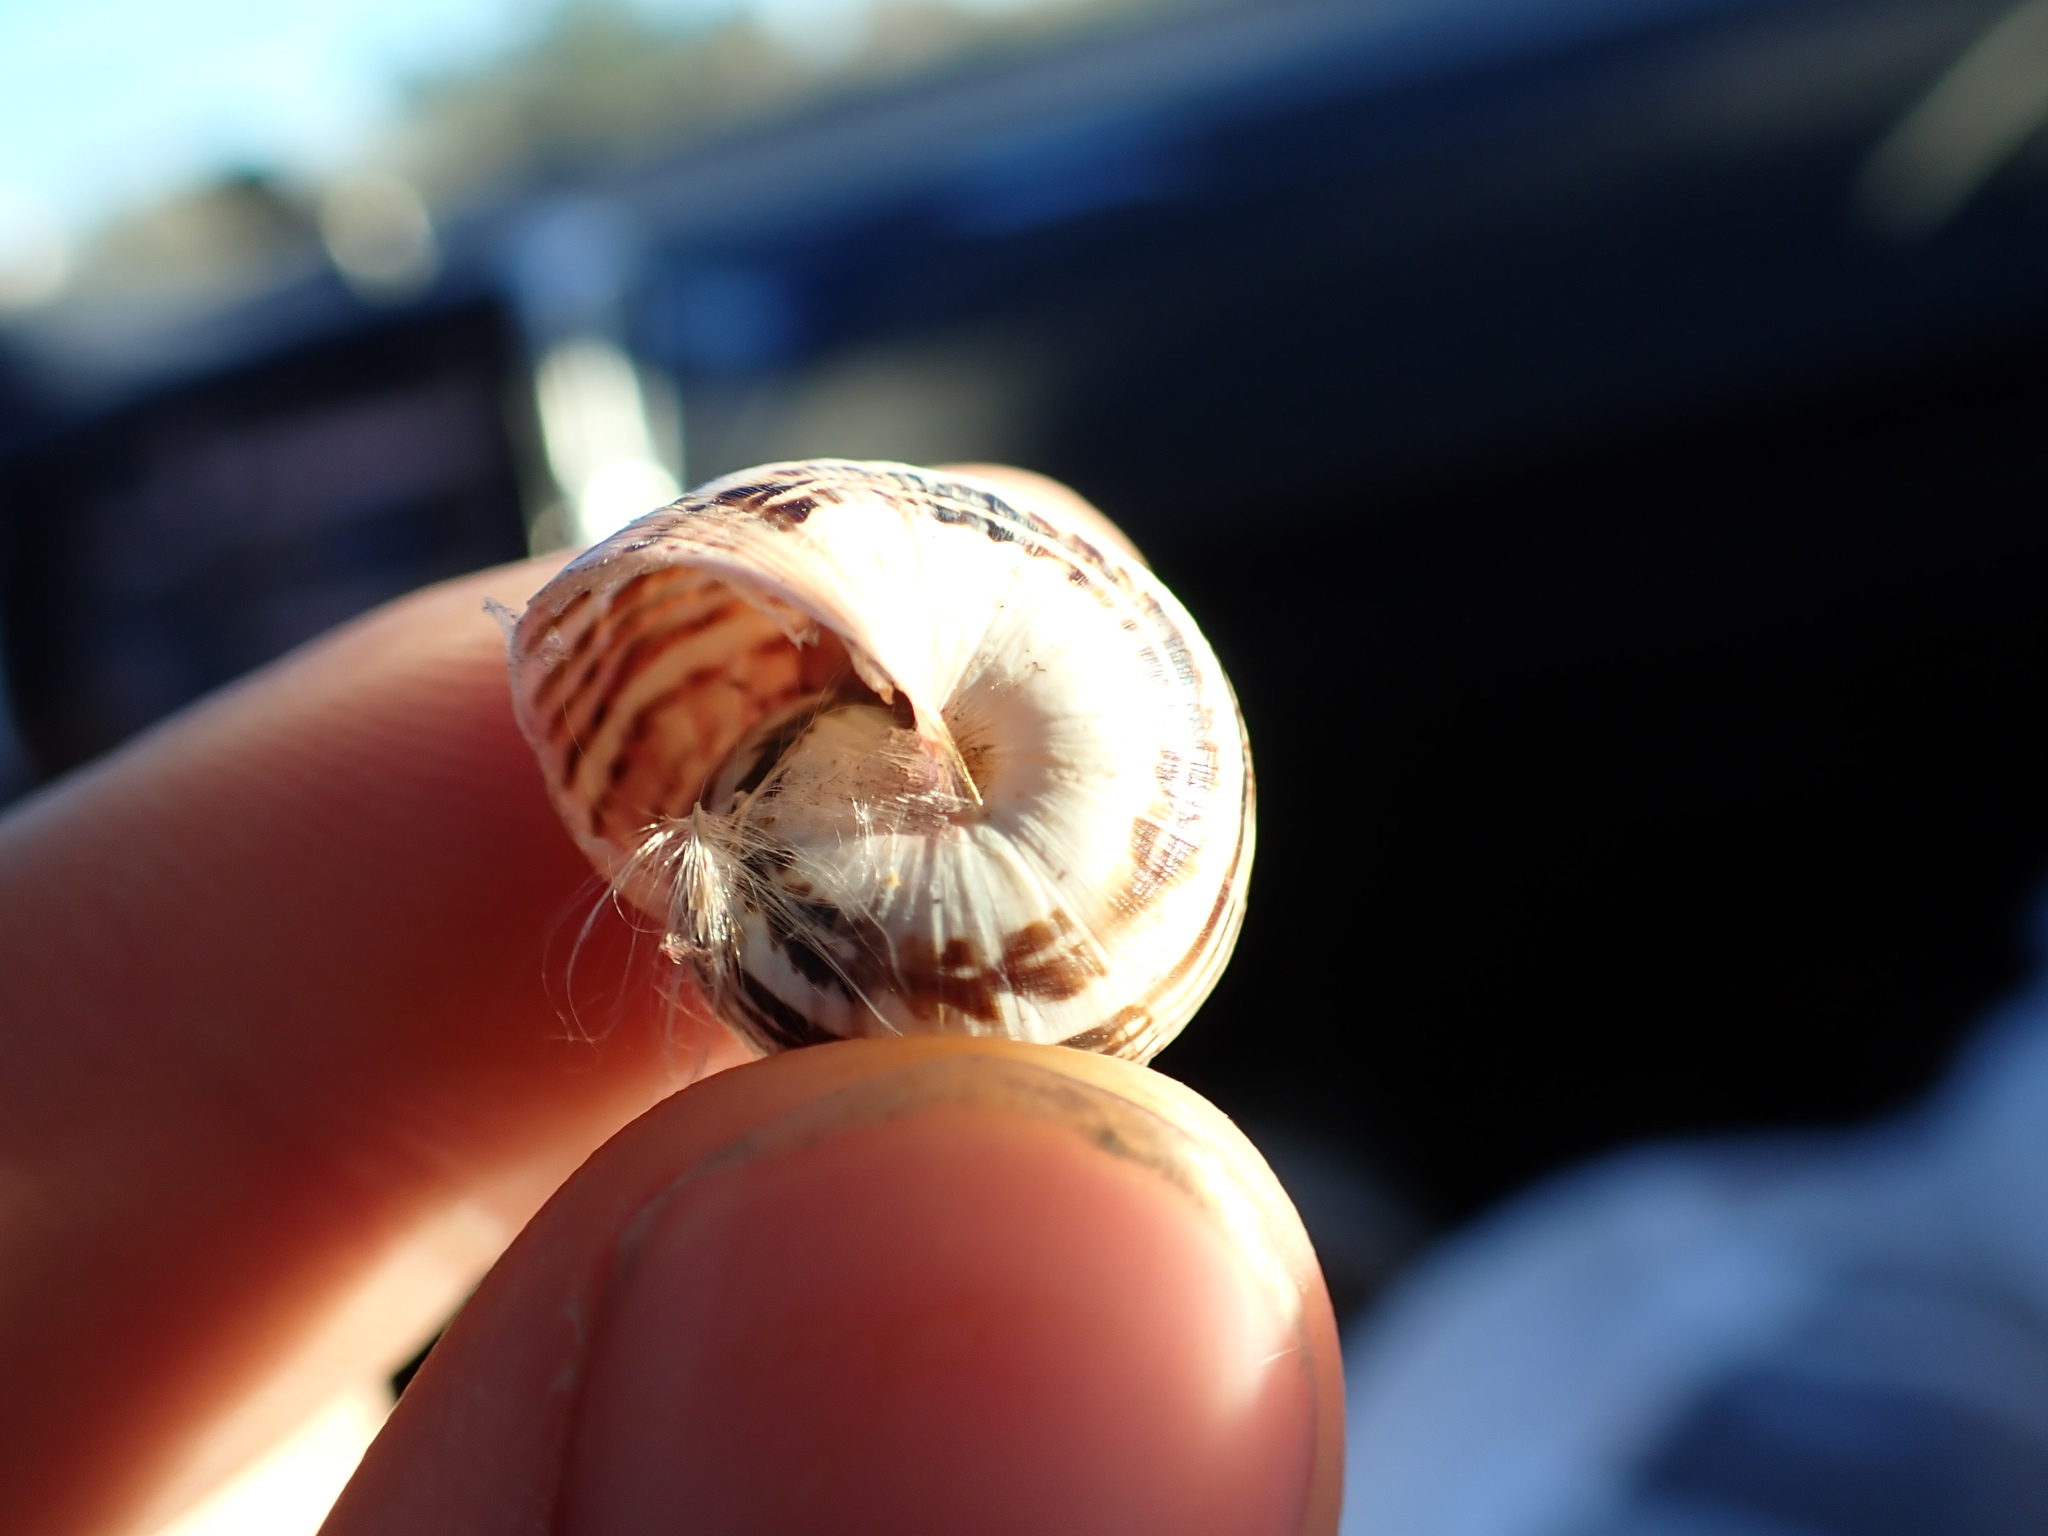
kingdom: Animalia
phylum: Mollusca
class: Gastropoda
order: Stylommatophora
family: Helicidae
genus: Theba
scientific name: Theba pisana
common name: White snail
